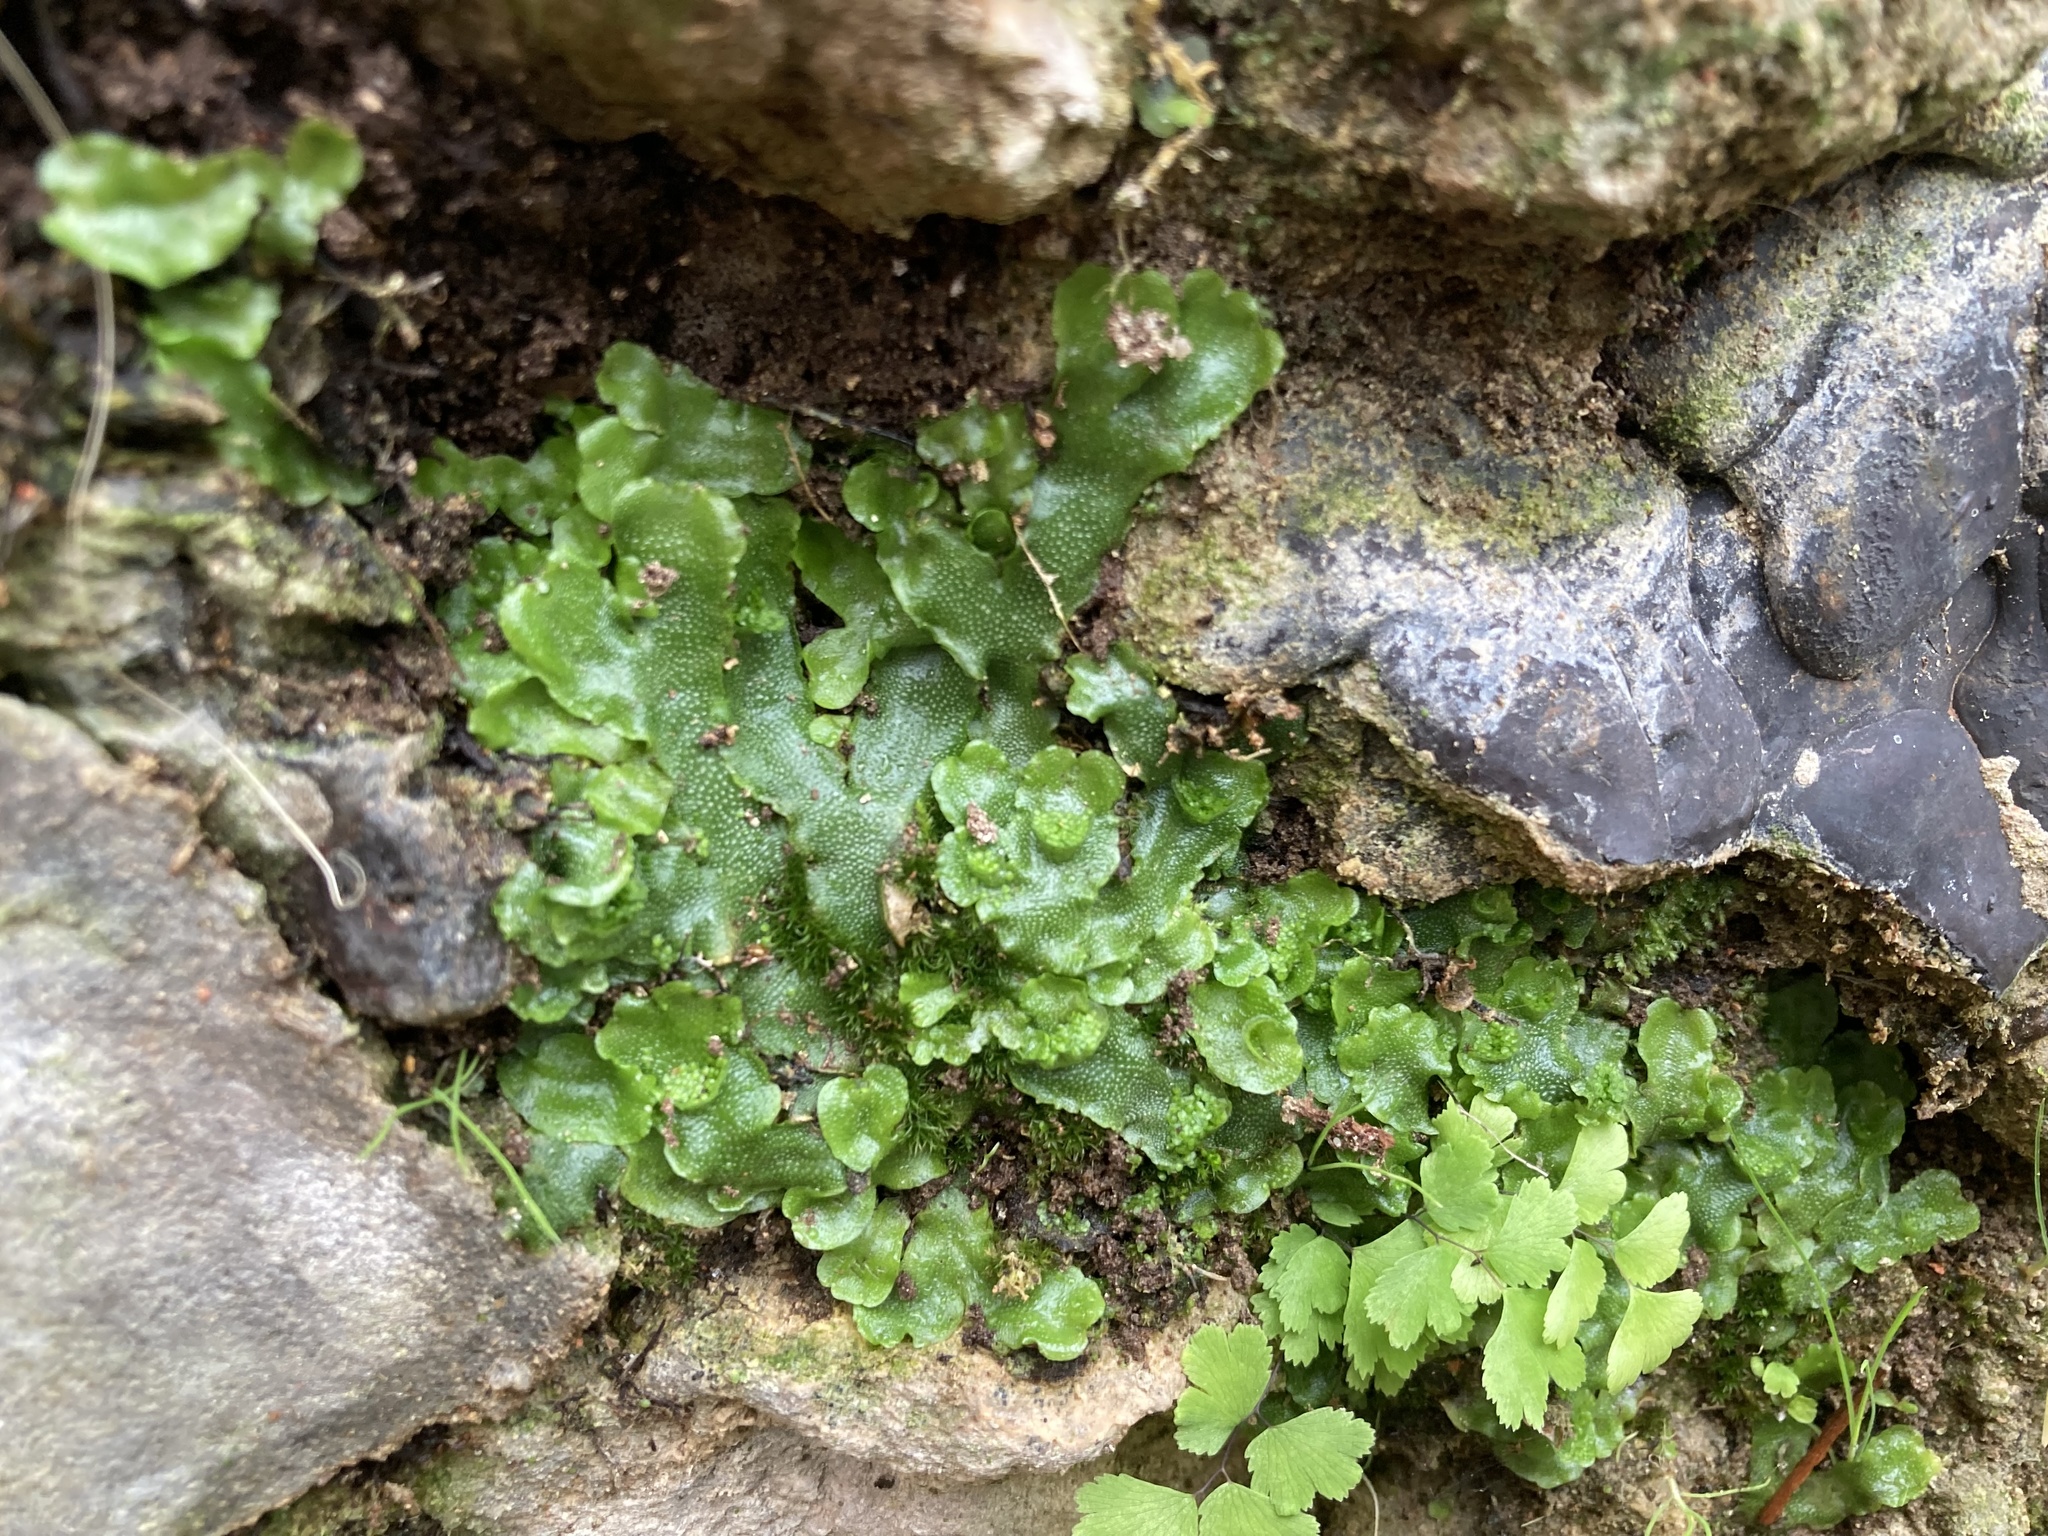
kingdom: Plantae
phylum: Marchantiophyta
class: Marchantiopsida
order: Lunulariales
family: Lunulariaceae
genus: Lunularia
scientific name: Lunularia cruciata
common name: Crescent-cup liverwort
